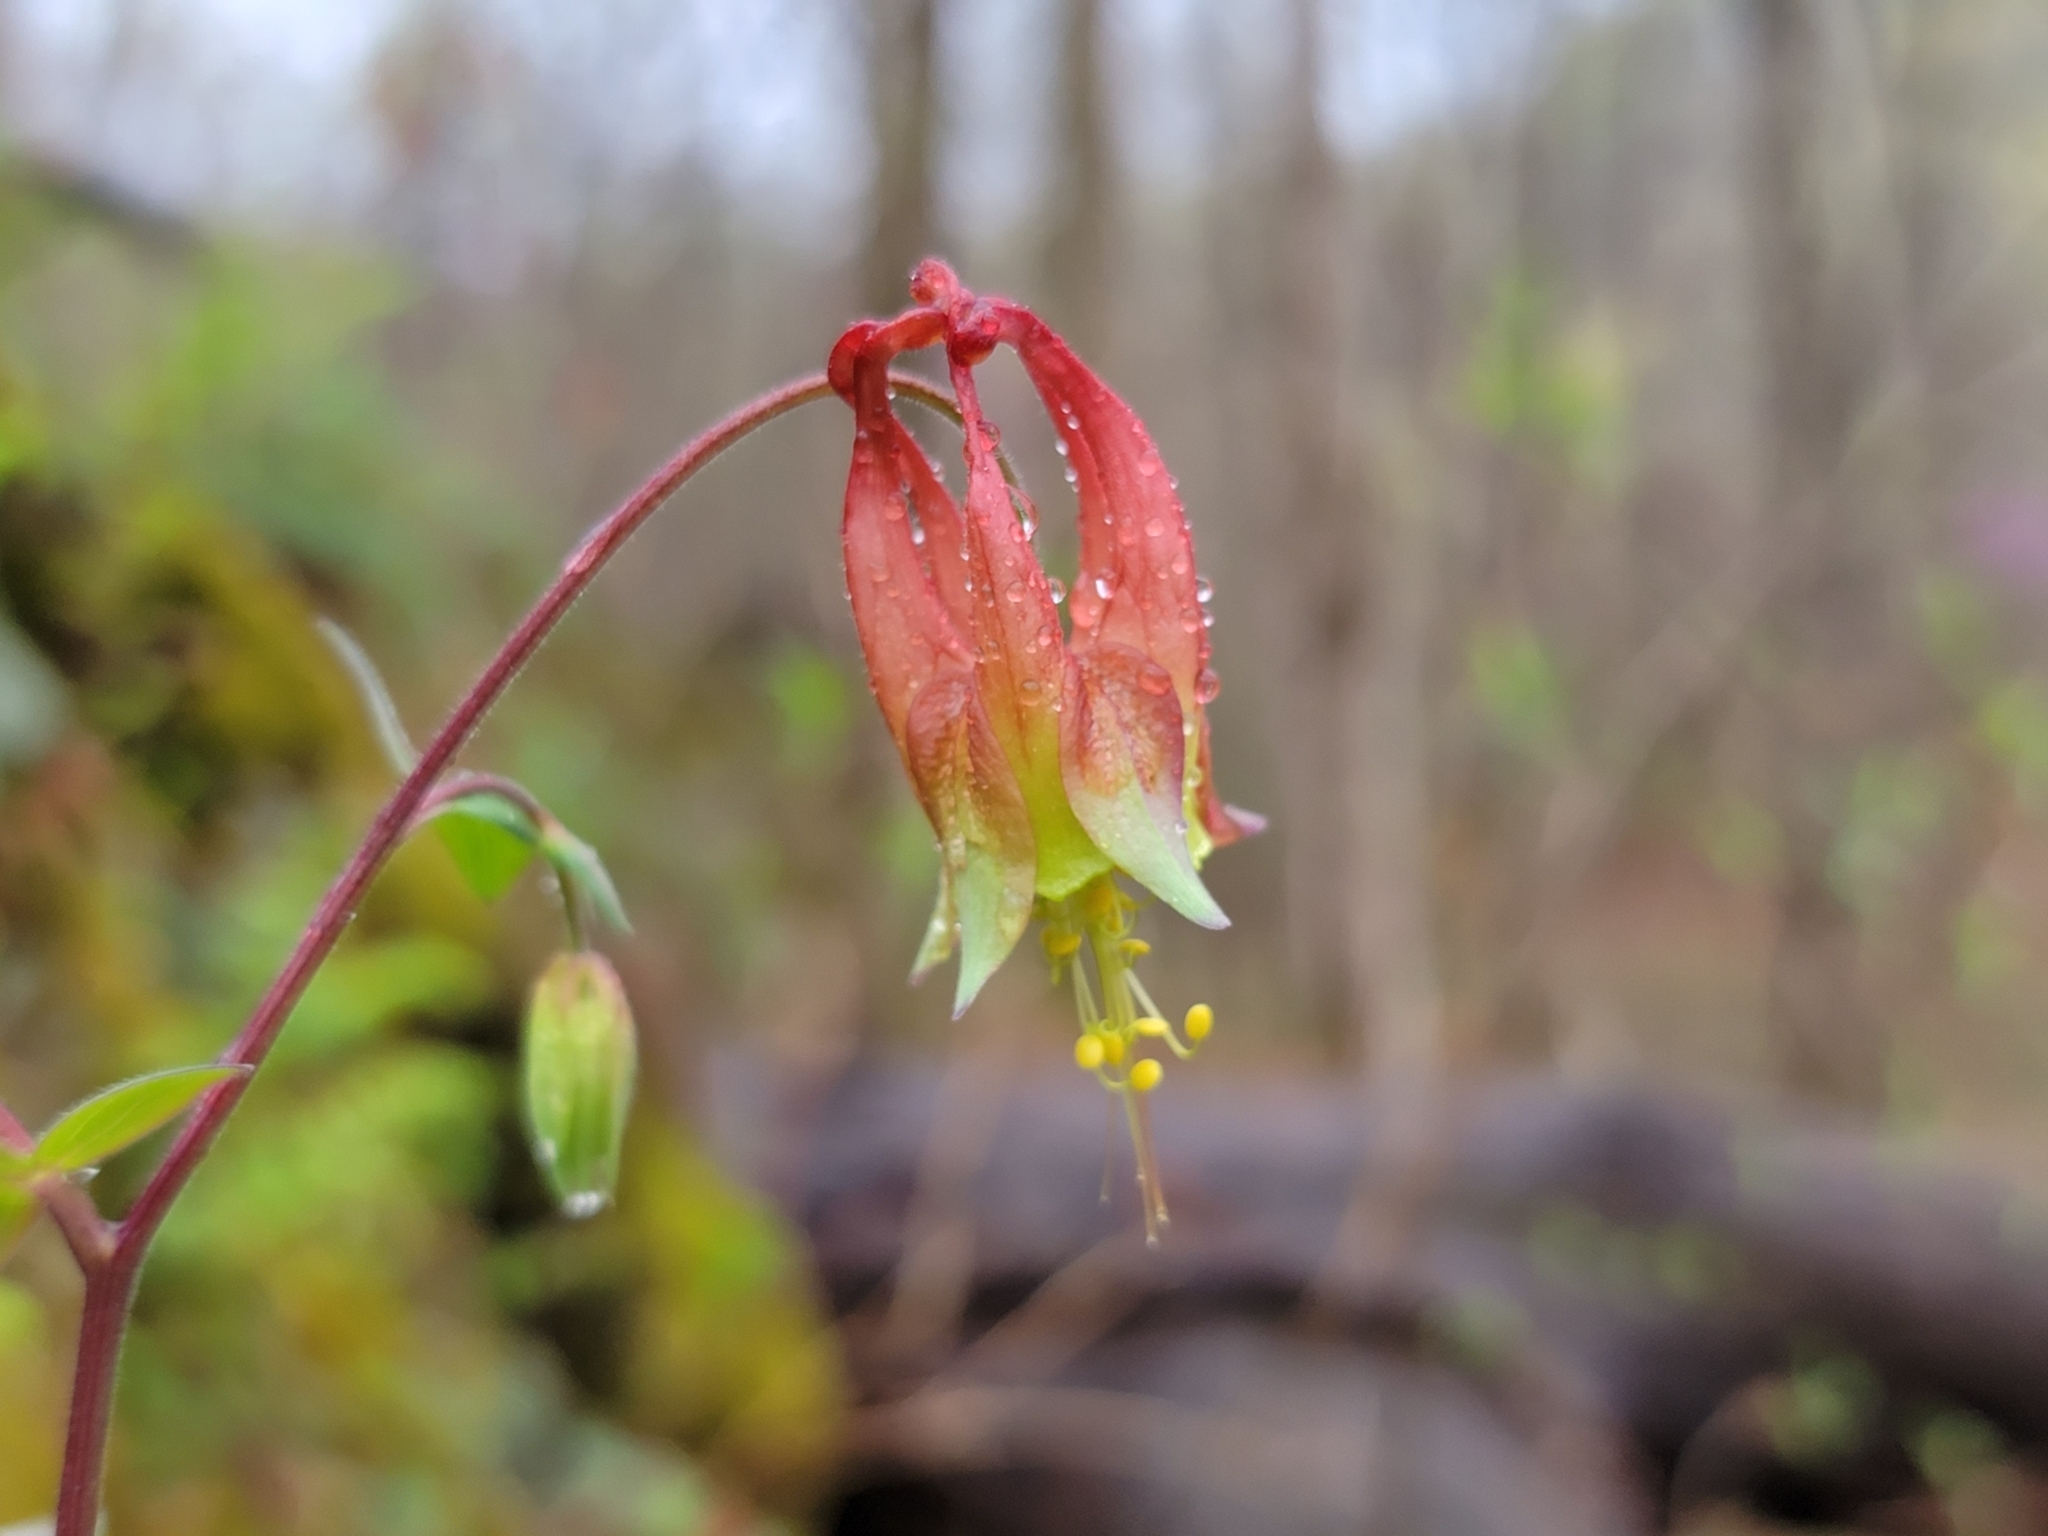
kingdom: Plantae
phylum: Tracheophyta
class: Magnoliopsida
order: Ranunculales
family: Ranunculaceae
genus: Aquilegia
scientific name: Aquilegia canadensis
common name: American columbine
